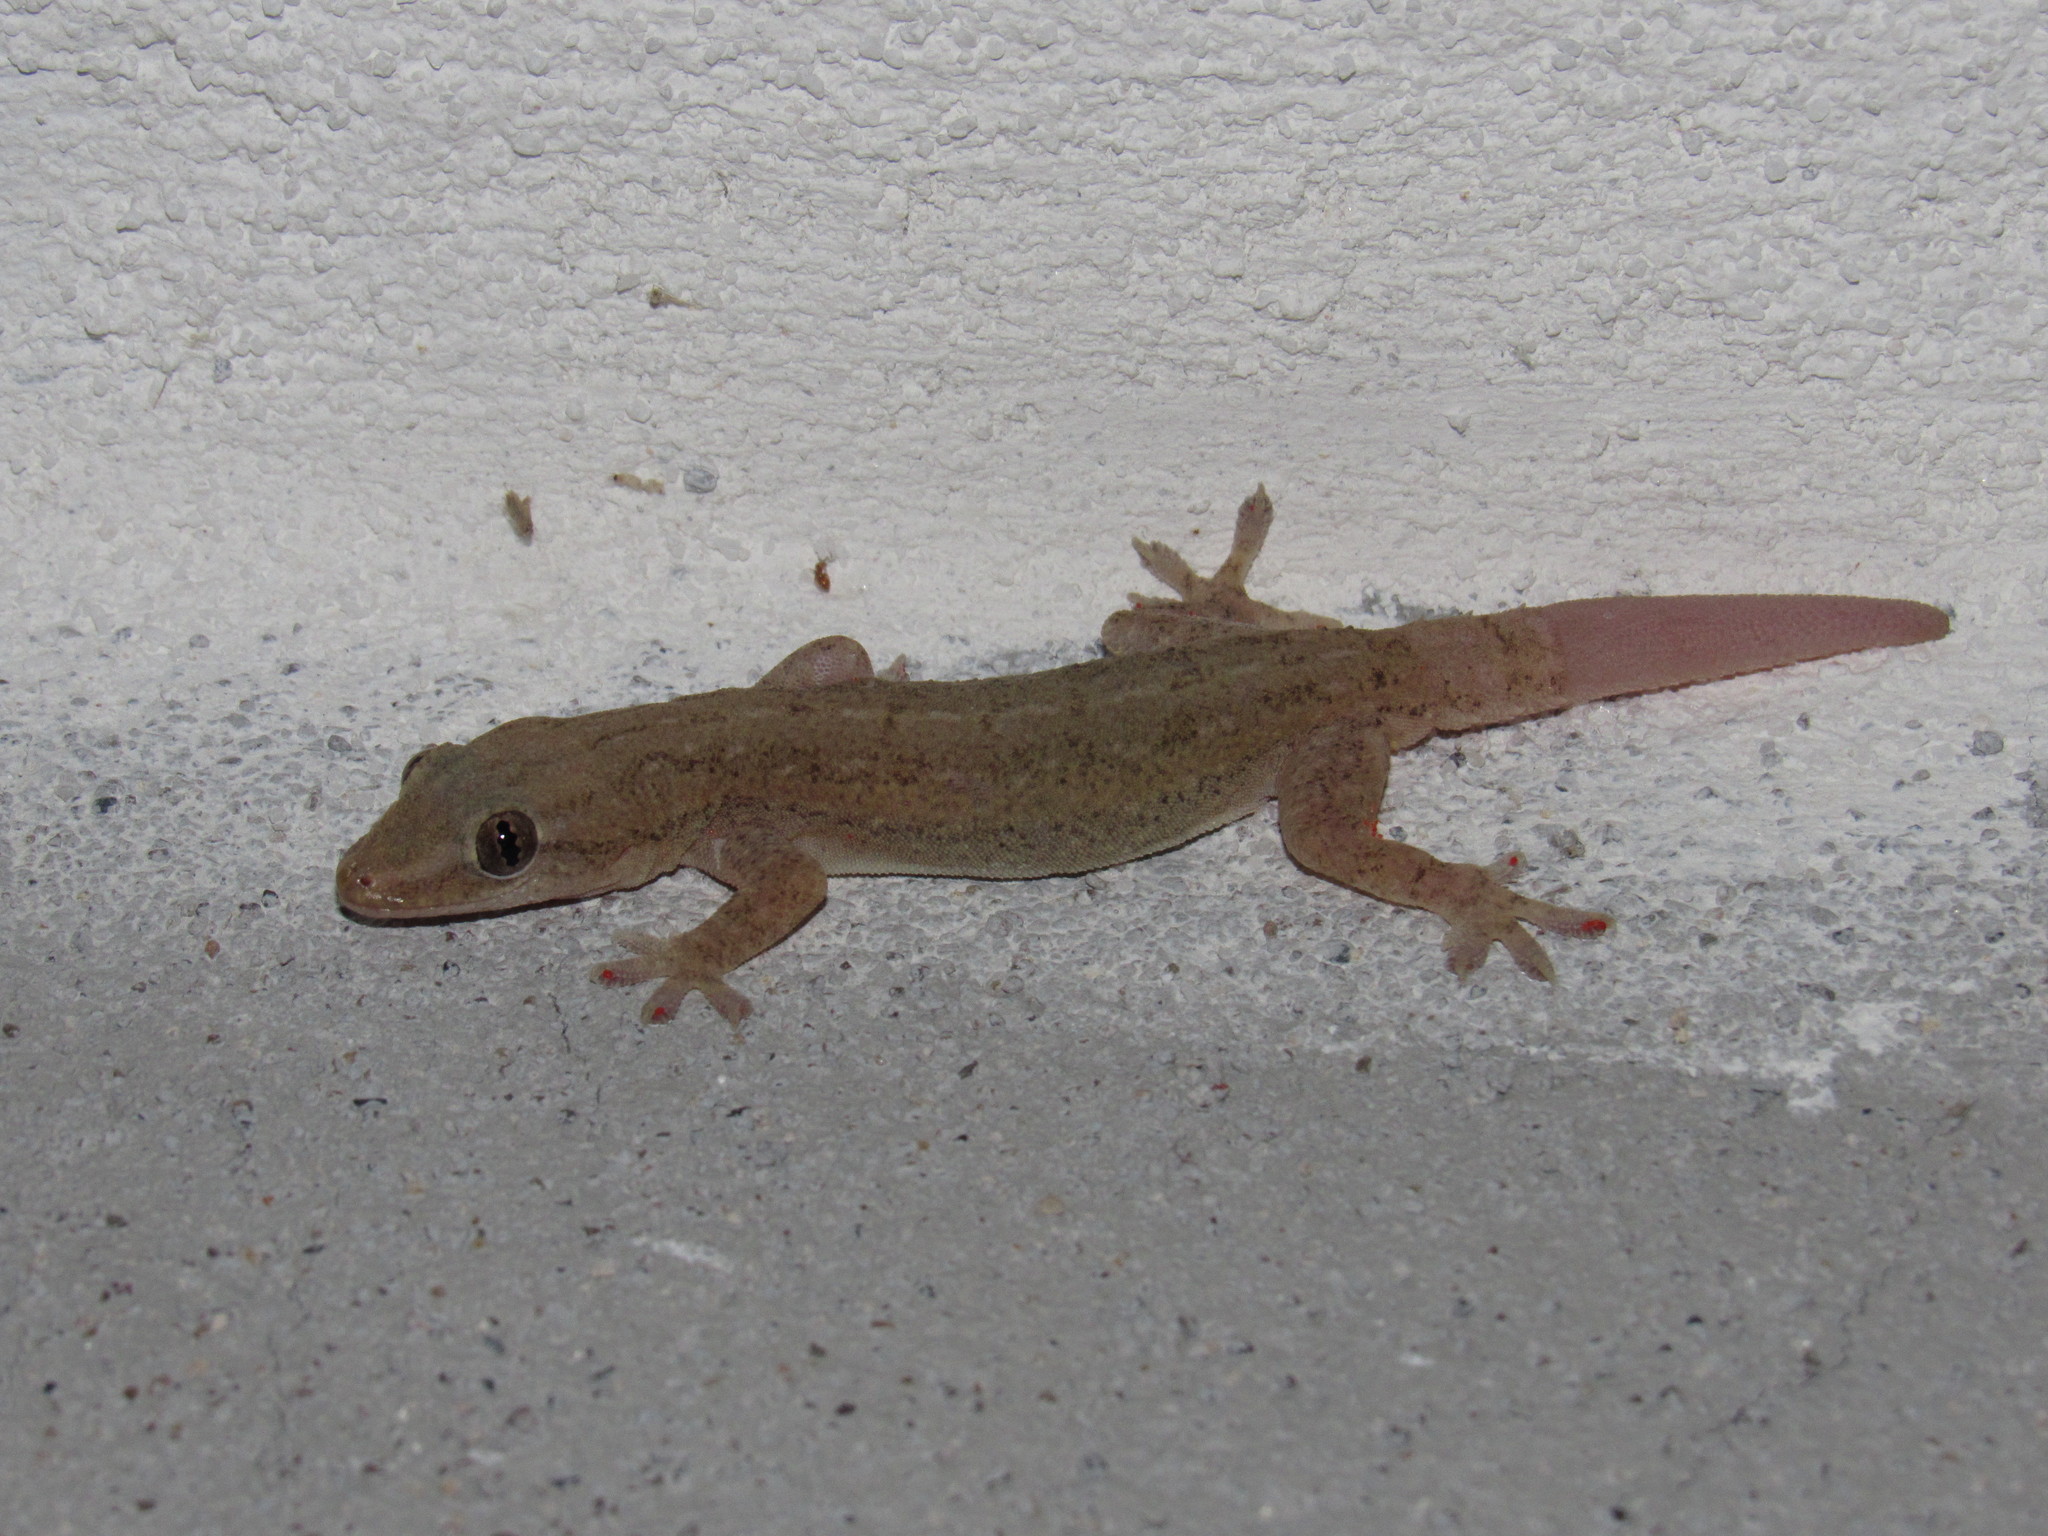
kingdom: Animalia
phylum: Chordata
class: Squamata
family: Gekkonidae
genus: Hemidactylus
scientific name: Hemidactylus frenatus
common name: Common house gecko
